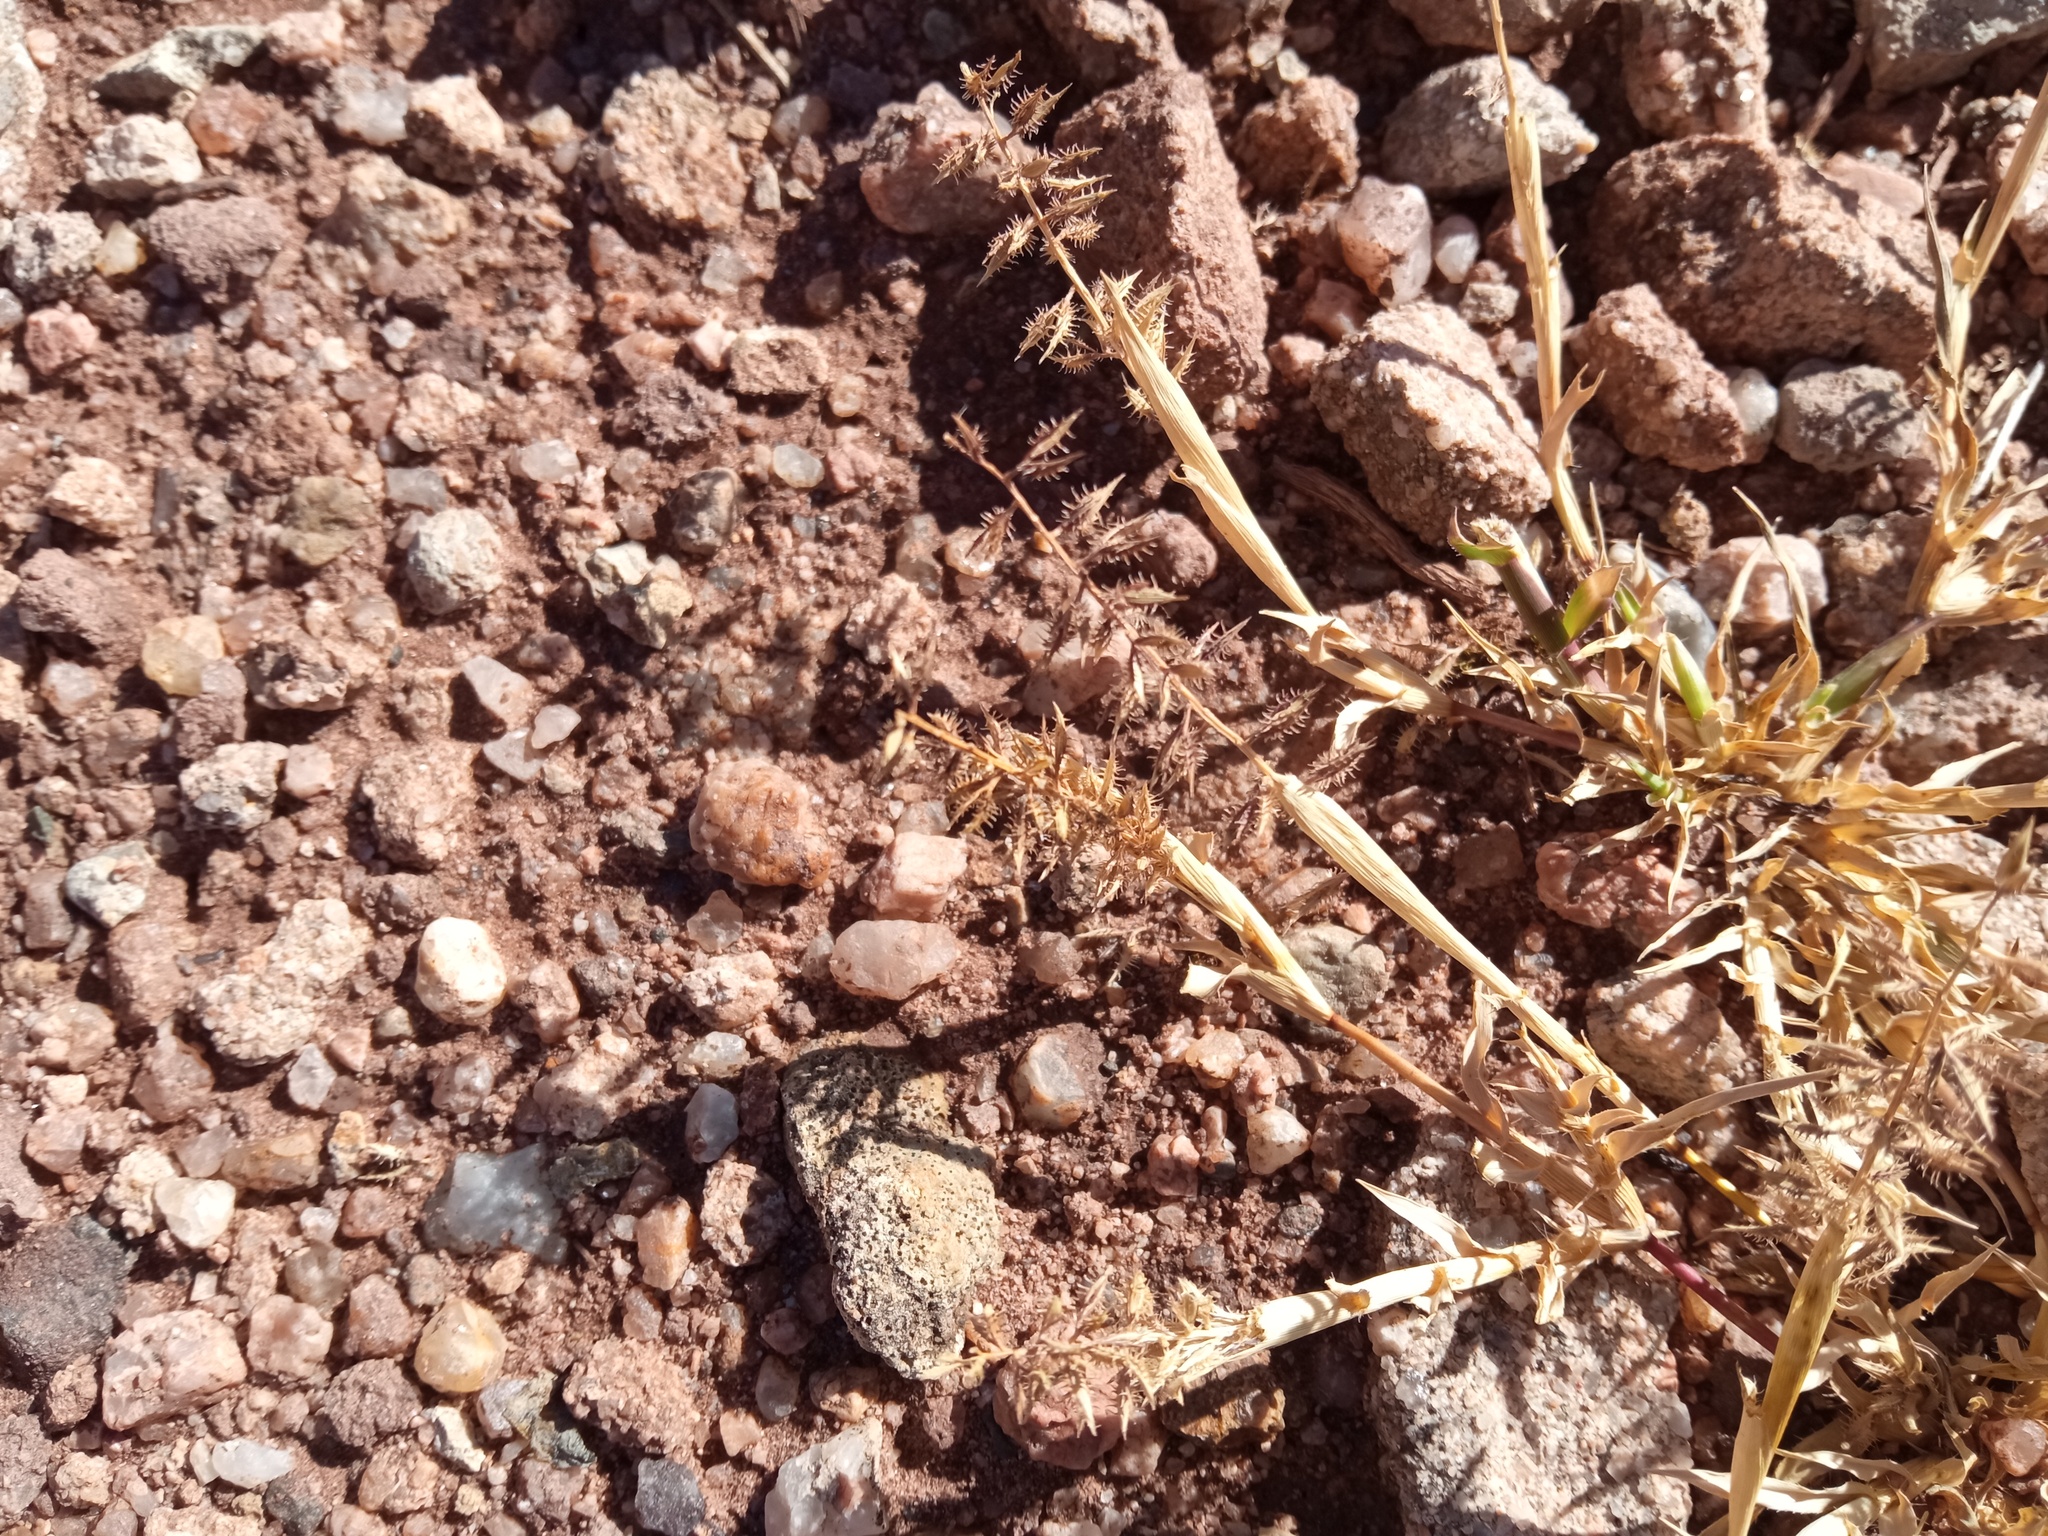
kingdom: Plantae
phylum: Tracheophyta
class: Liliopsida
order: Poales
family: Poaceae
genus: Tragus
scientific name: Tragus racemosus
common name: European bur-grass
